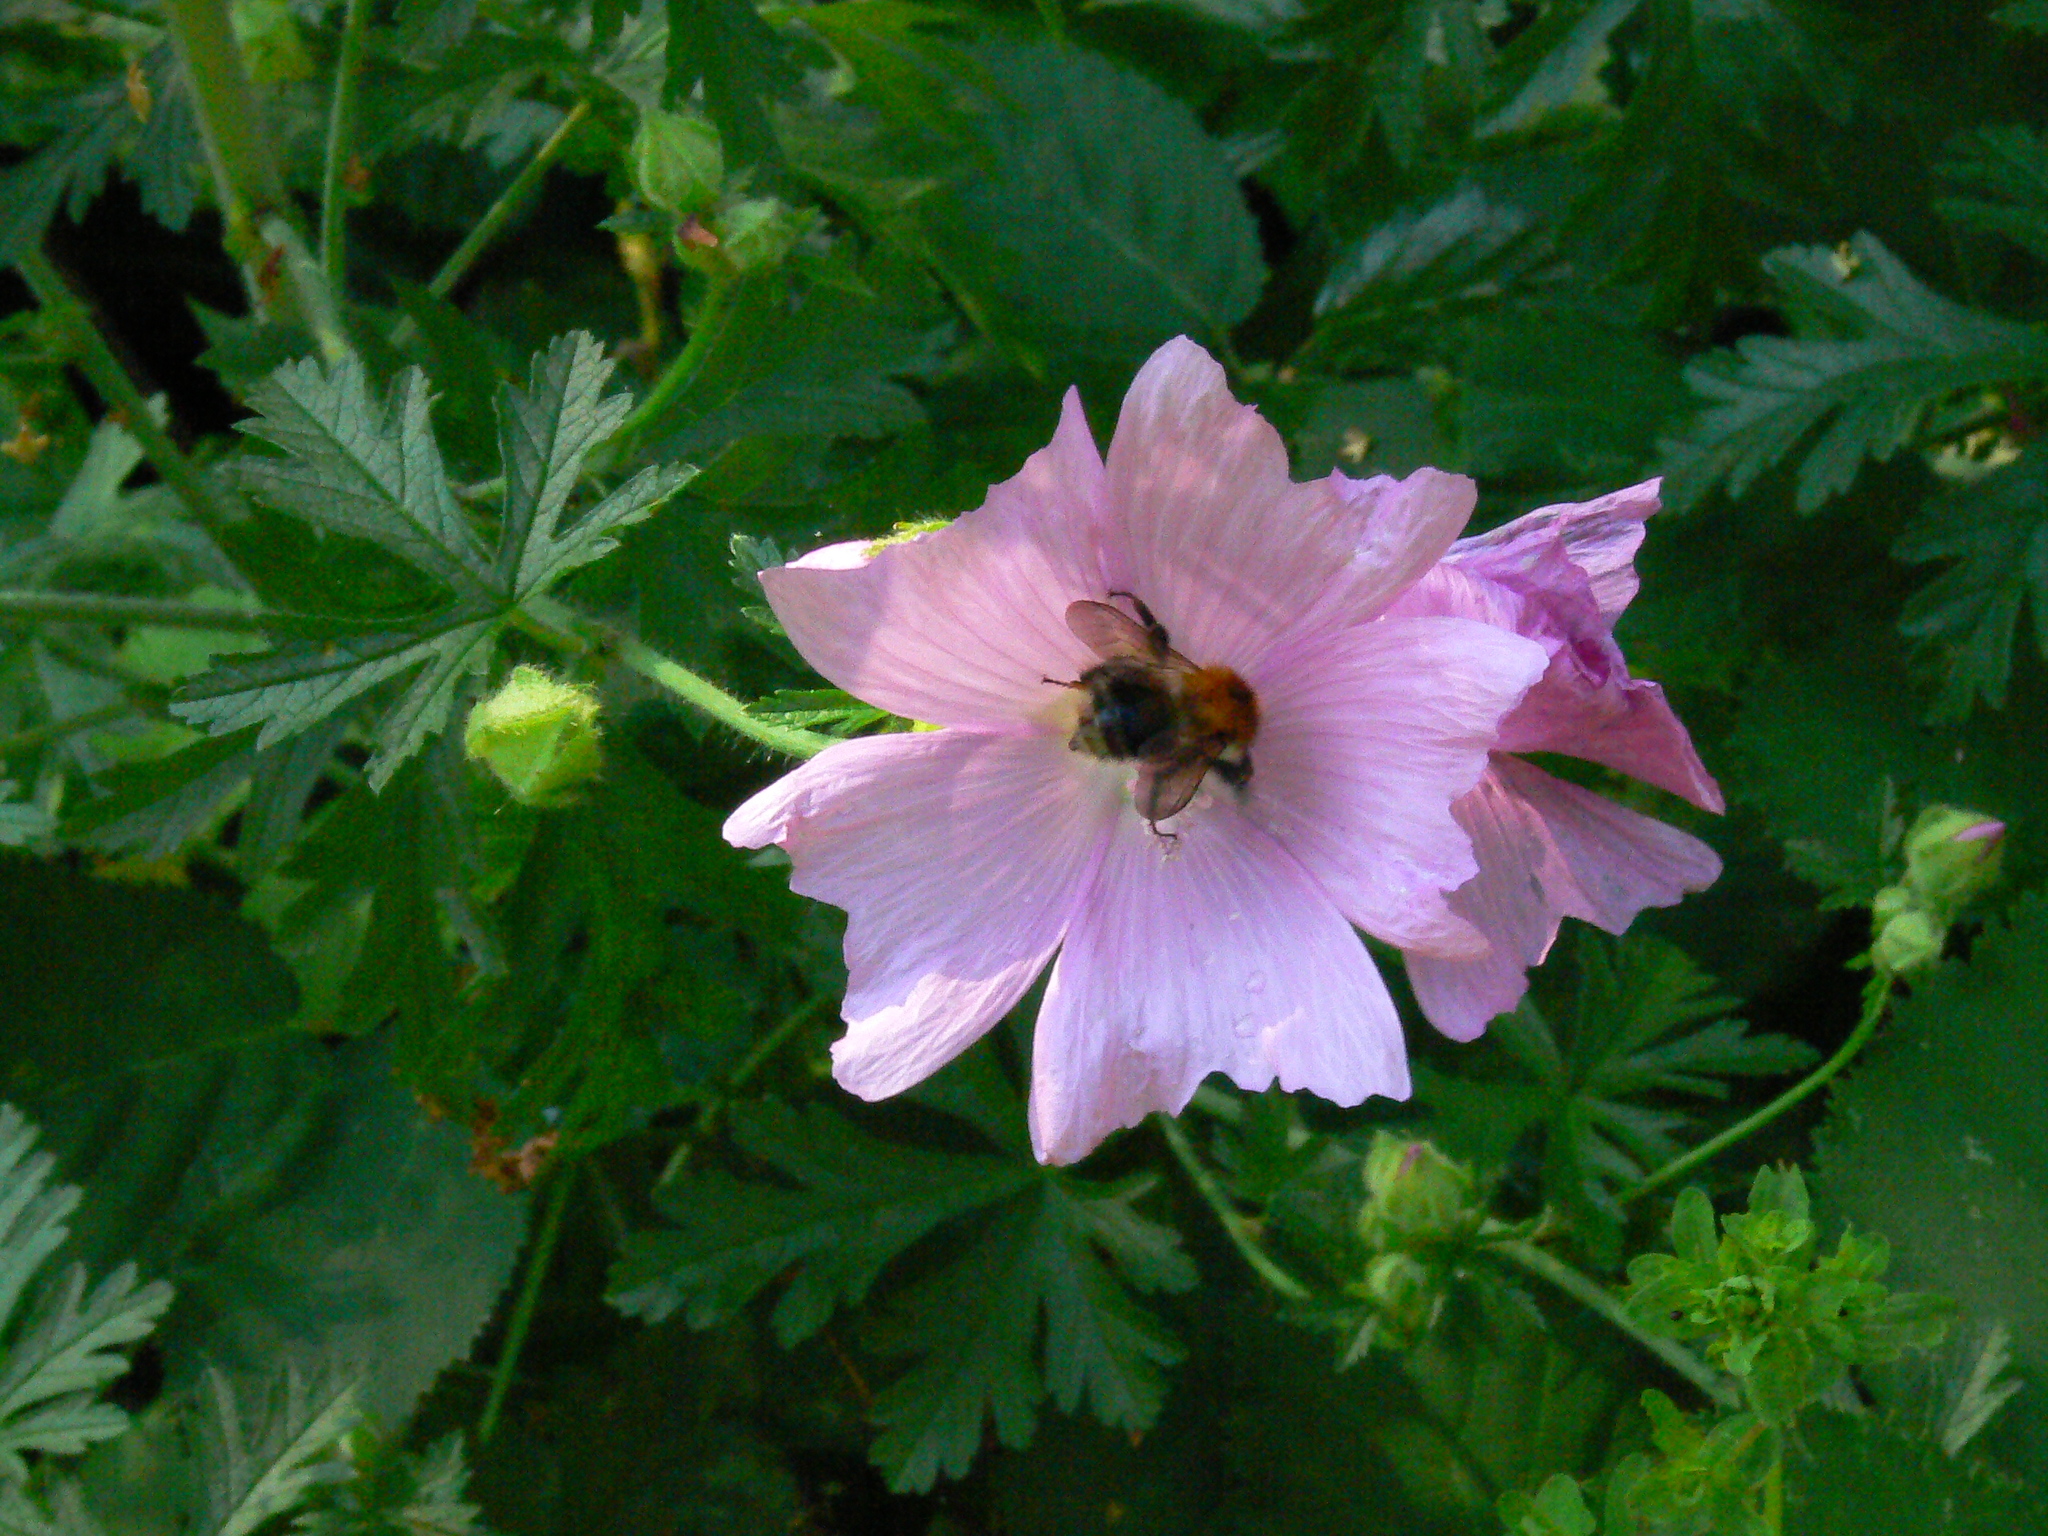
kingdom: Plantae
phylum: Tracheophyta
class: Magnoliopsida
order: Malvales
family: Malvaceae
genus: Malva
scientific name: Malva alcea
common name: Greater musk-mallow
